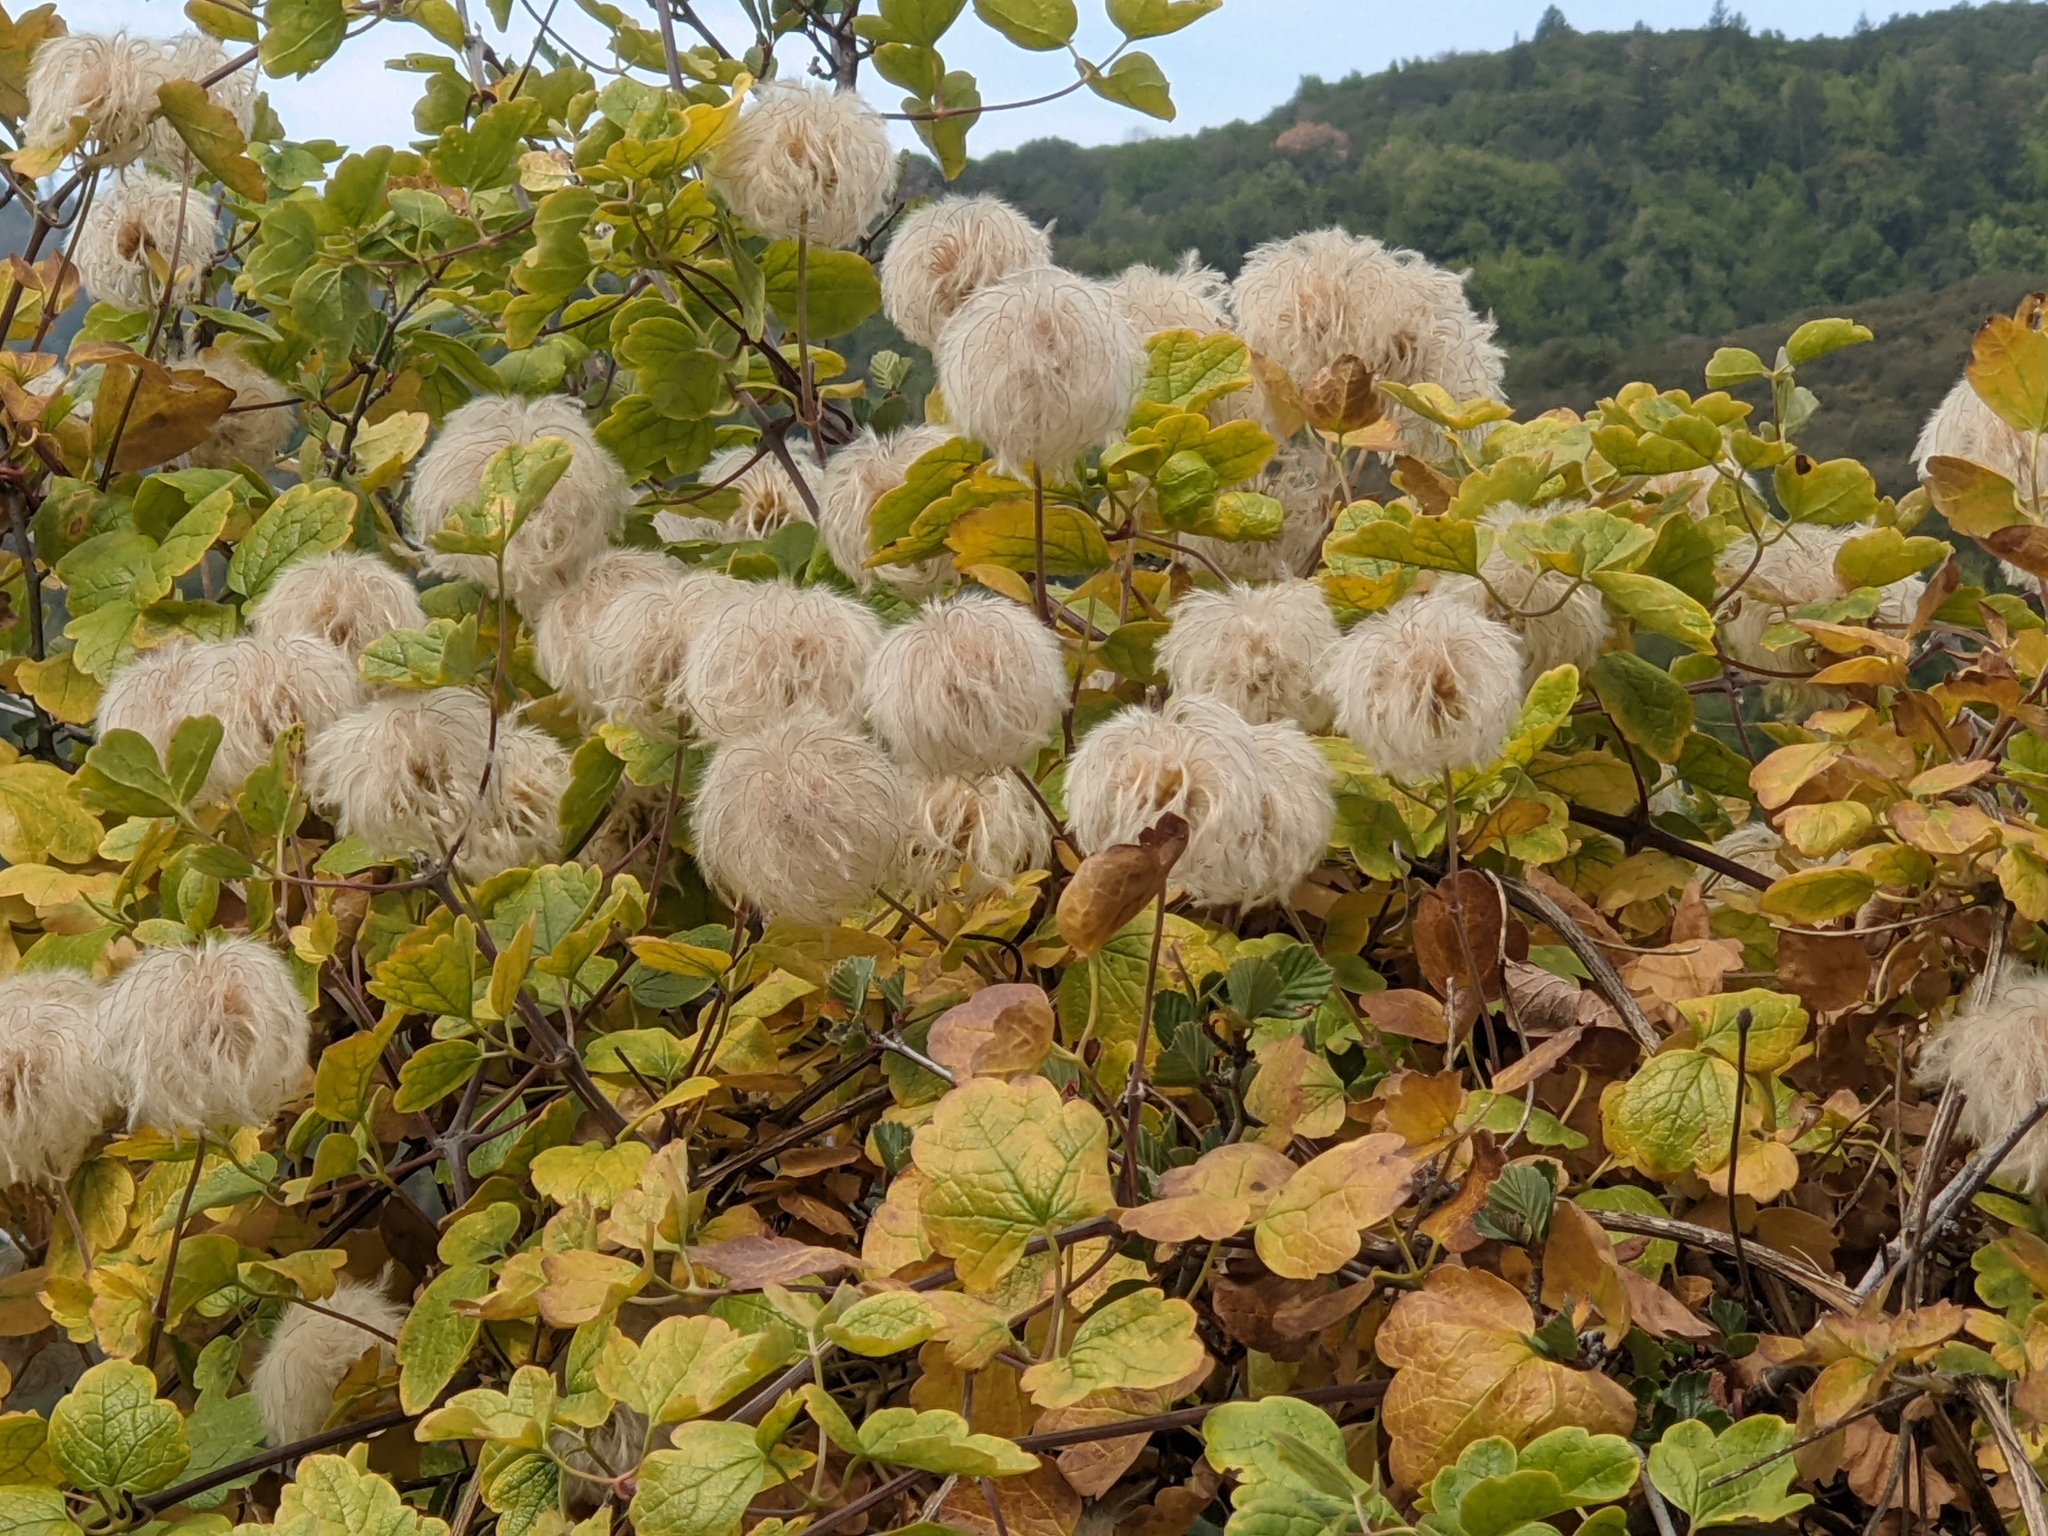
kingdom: Plantae
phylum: Tracheophyta
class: Magnoliopsida
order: Ranunculales
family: Ranunculaceae
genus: Clematis
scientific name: Clematis lasiantha
